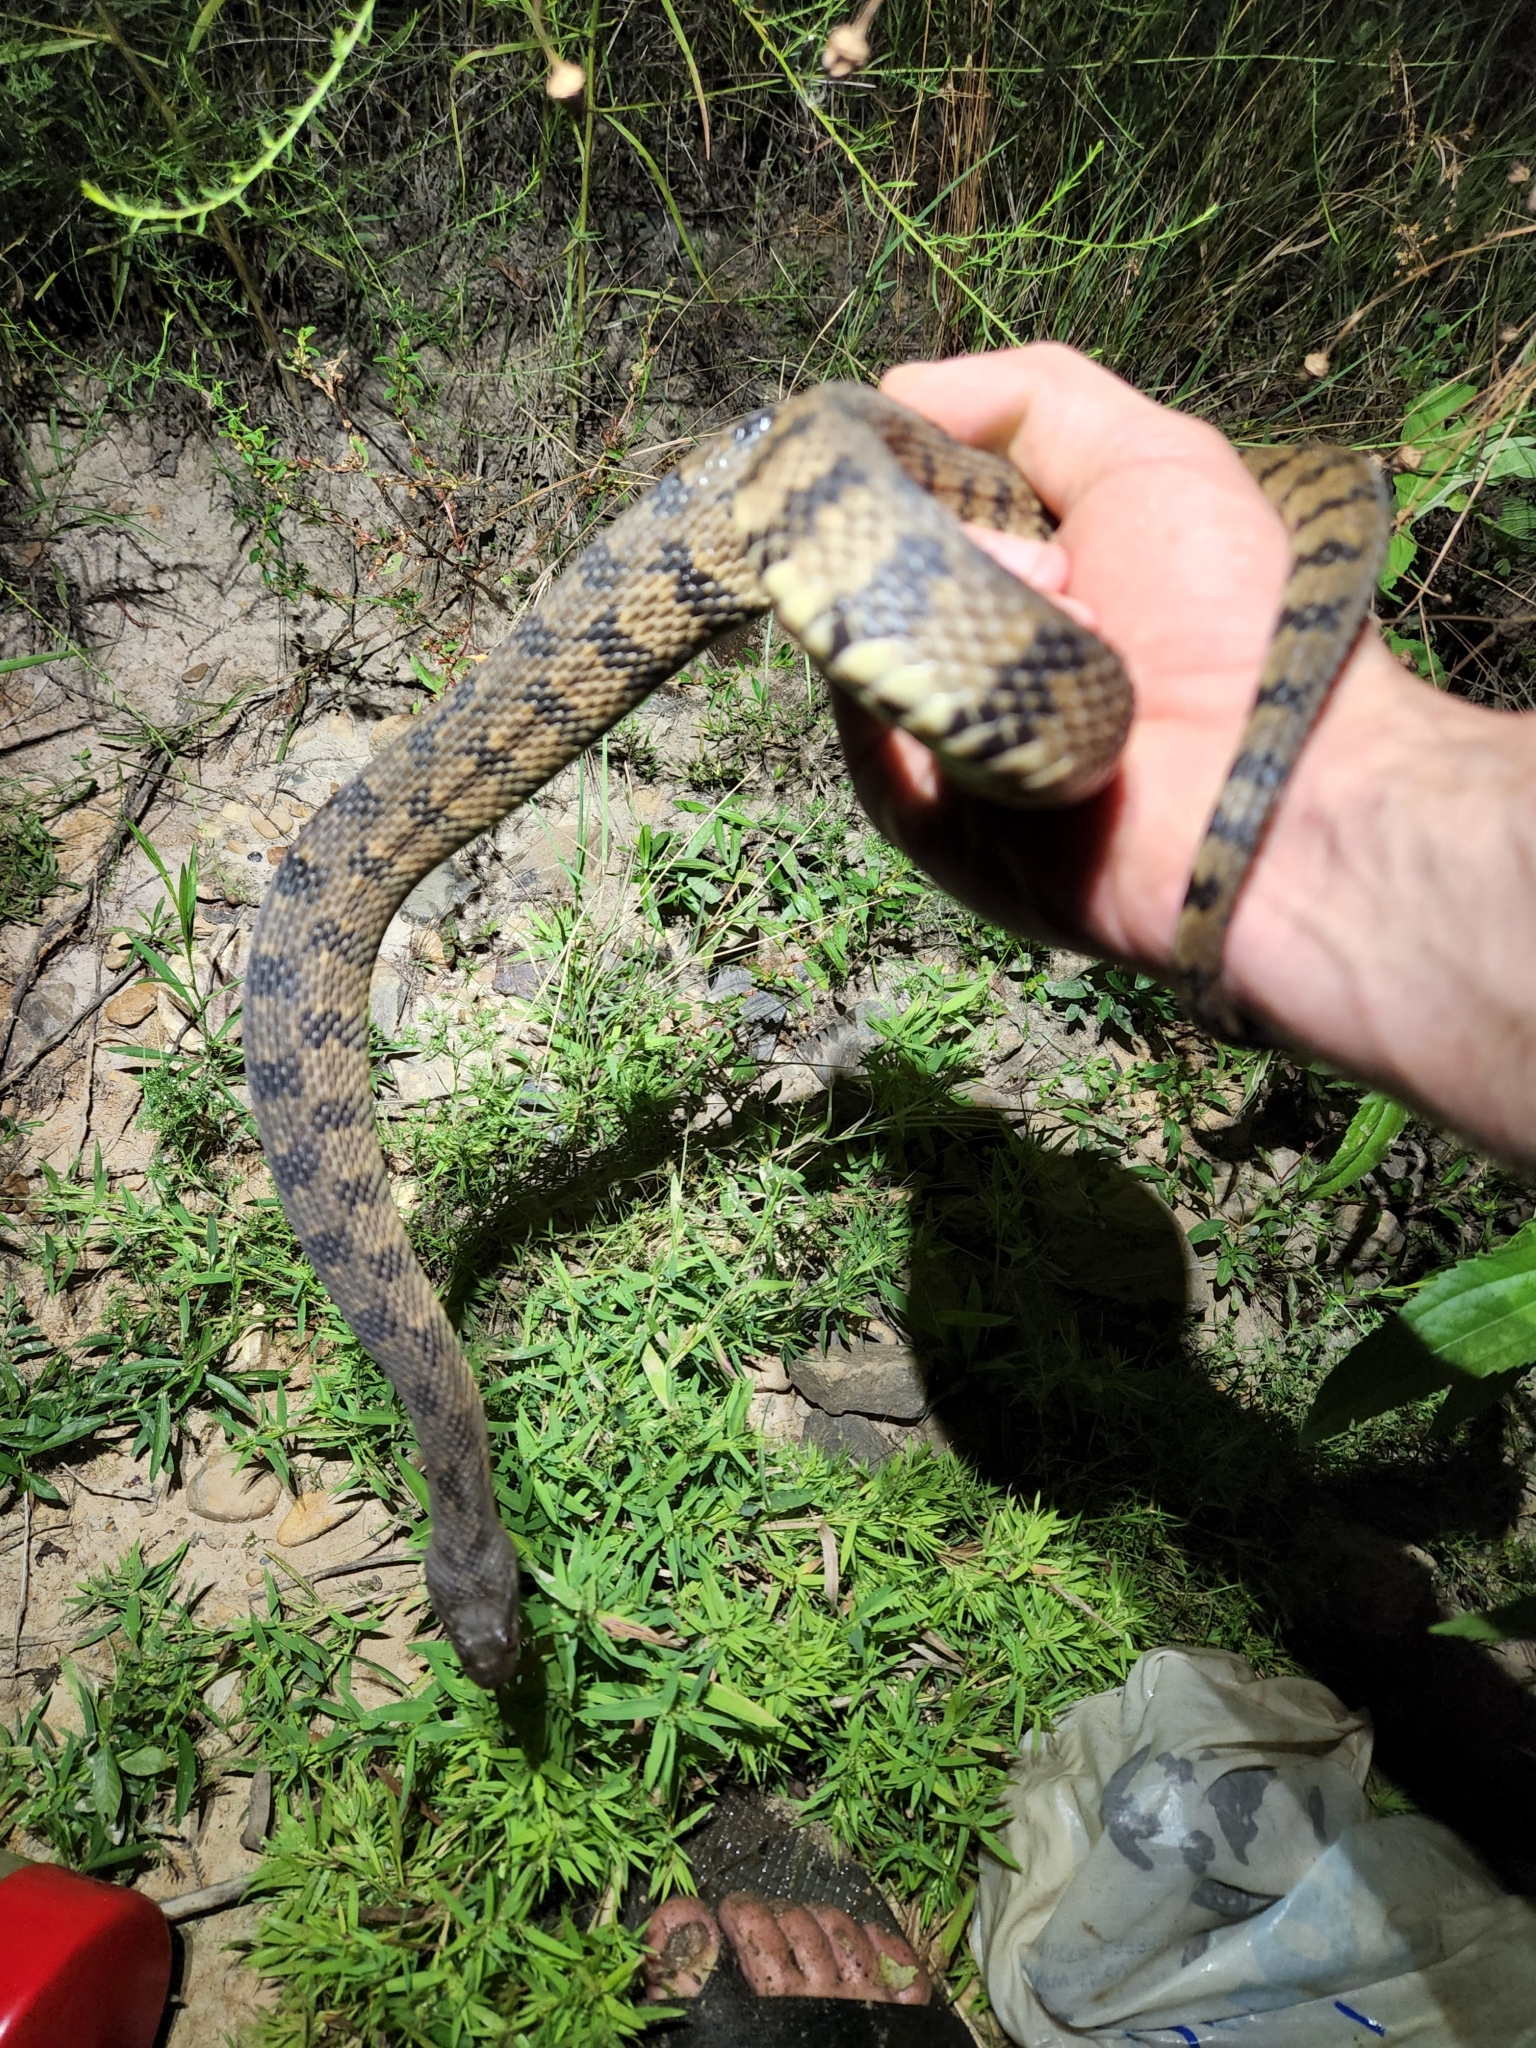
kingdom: Animalia
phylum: Chordata
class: Squamata
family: Colubridae
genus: Nerodia
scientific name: Nerodia rhombifer
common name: Diamondback water snake
